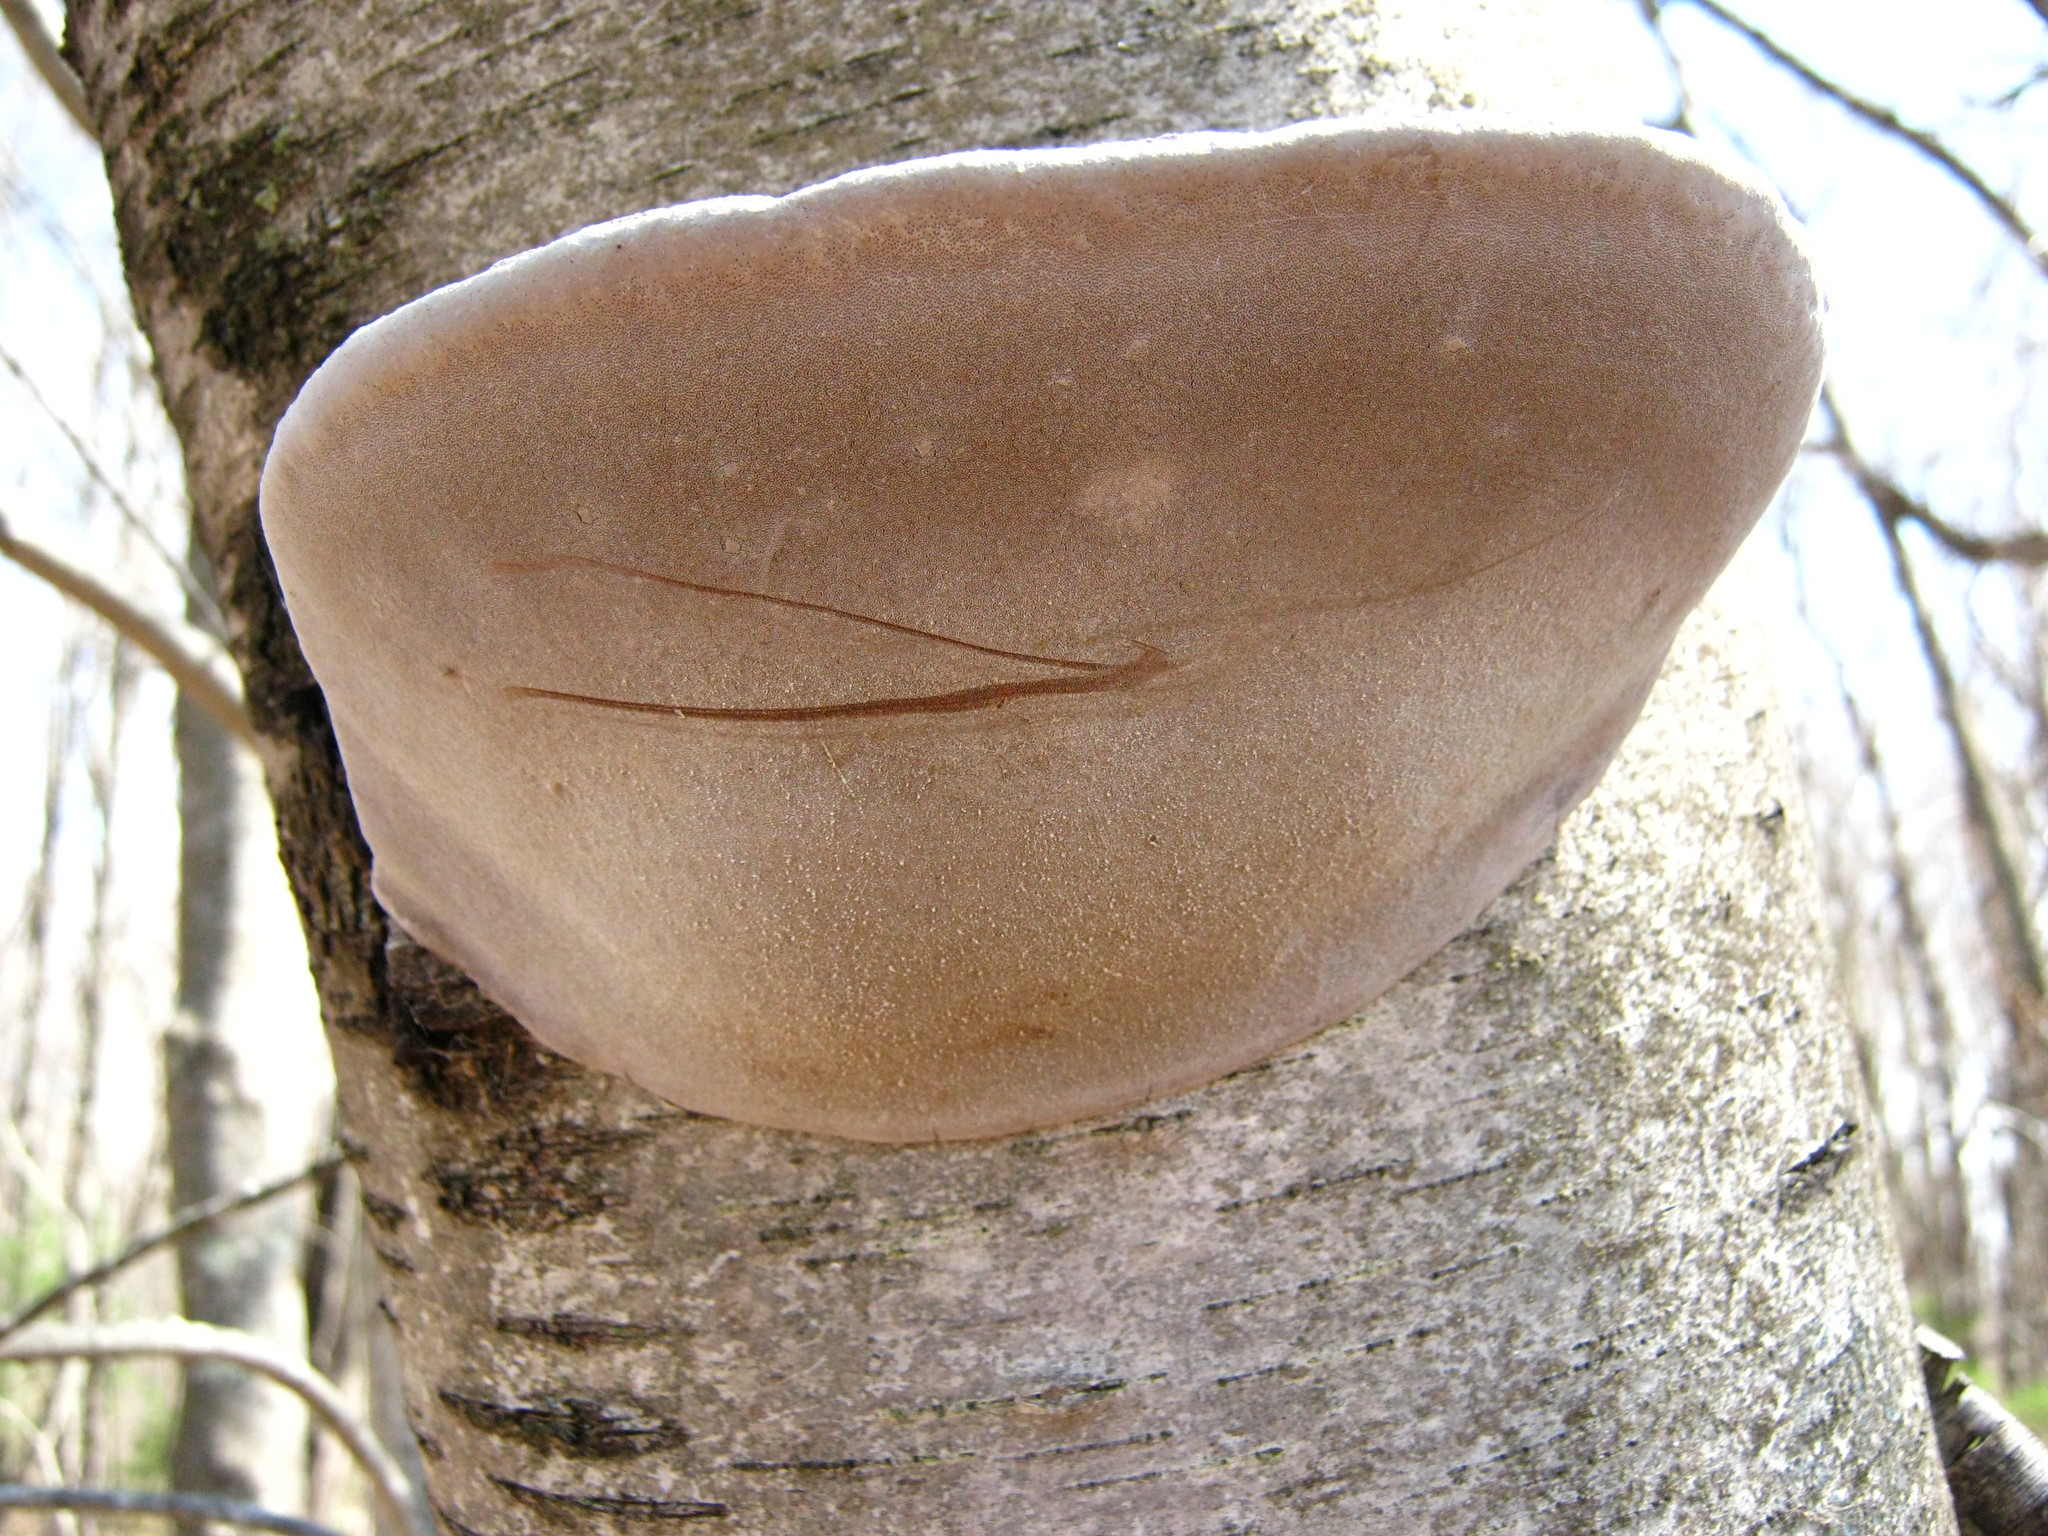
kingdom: Fungi
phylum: Basidiomycota
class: Agaricomycetes
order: Hymenochaetales
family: Hymenochaetaceae
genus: Phellinus
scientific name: Phellinus igniarius
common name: Willow bracket
